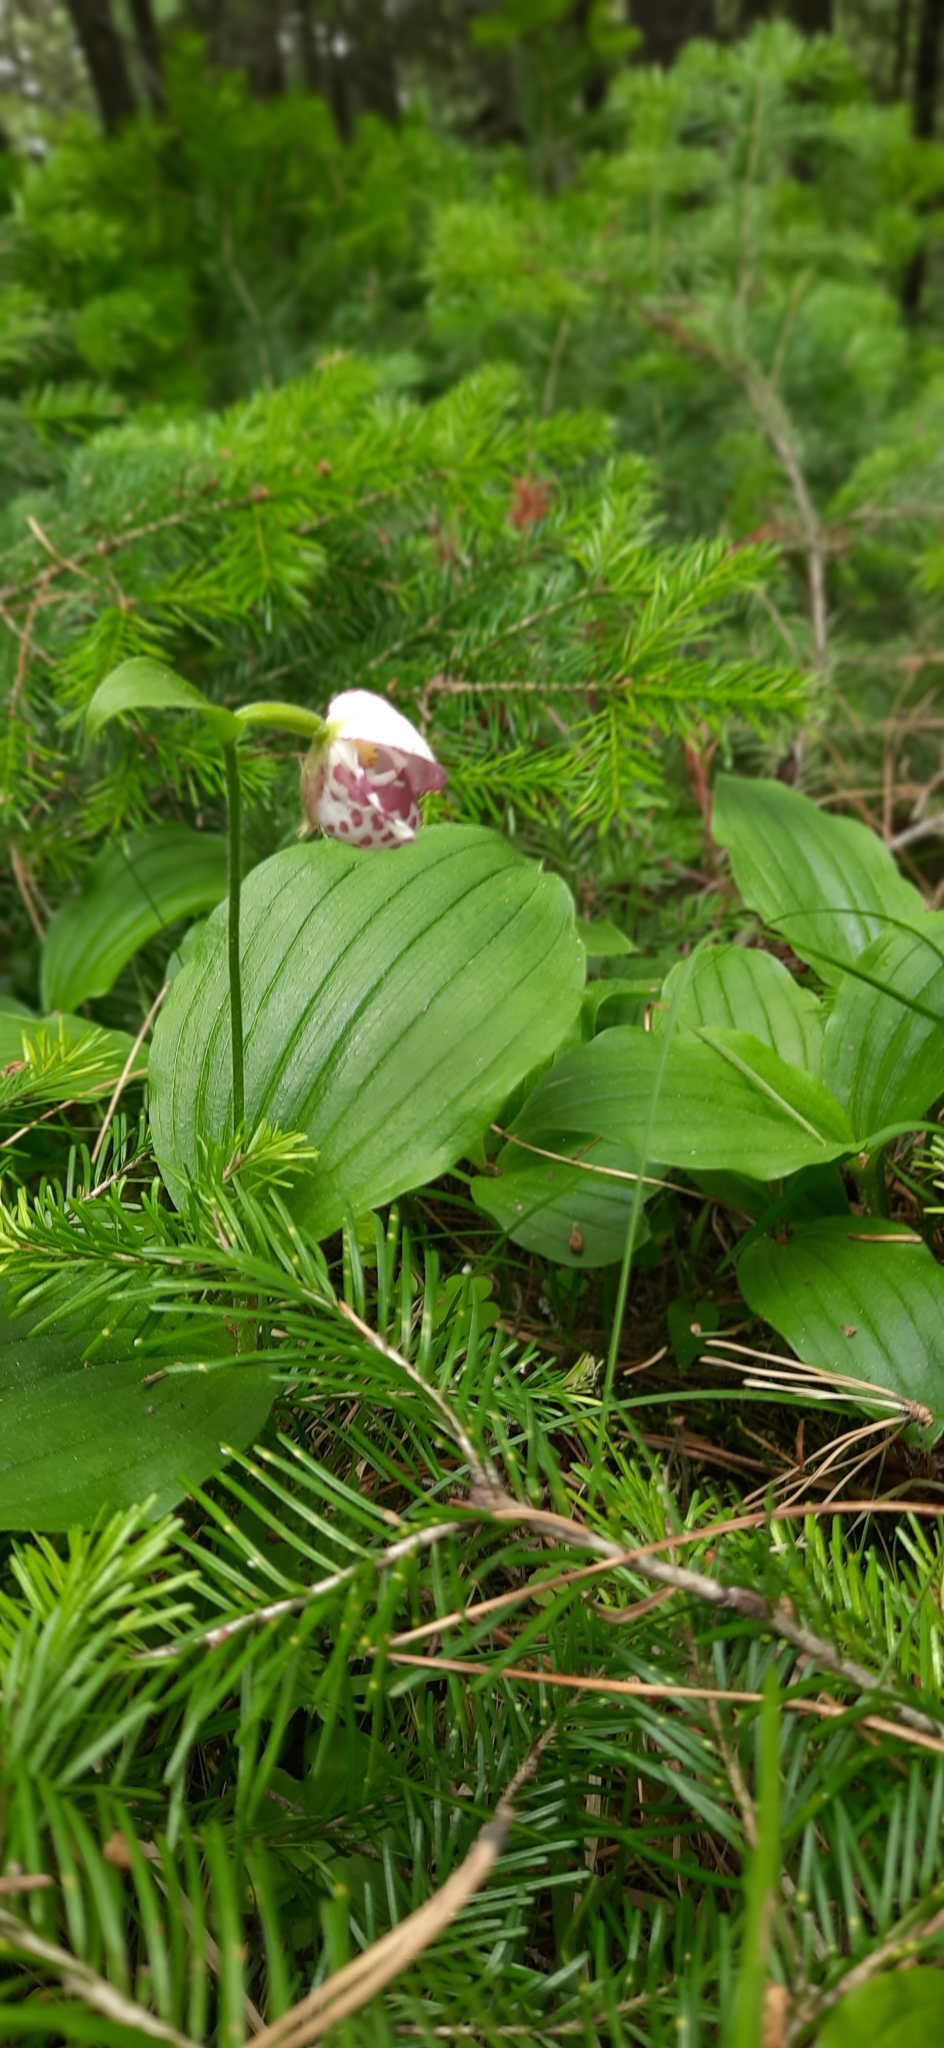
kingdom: Plantae
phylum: Tracheophyta
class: Liliopsida
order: Asparagales
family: Orchidaceae
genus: Cypripedium
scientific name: Cypripedium guttatum
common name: Pink lady slipper
